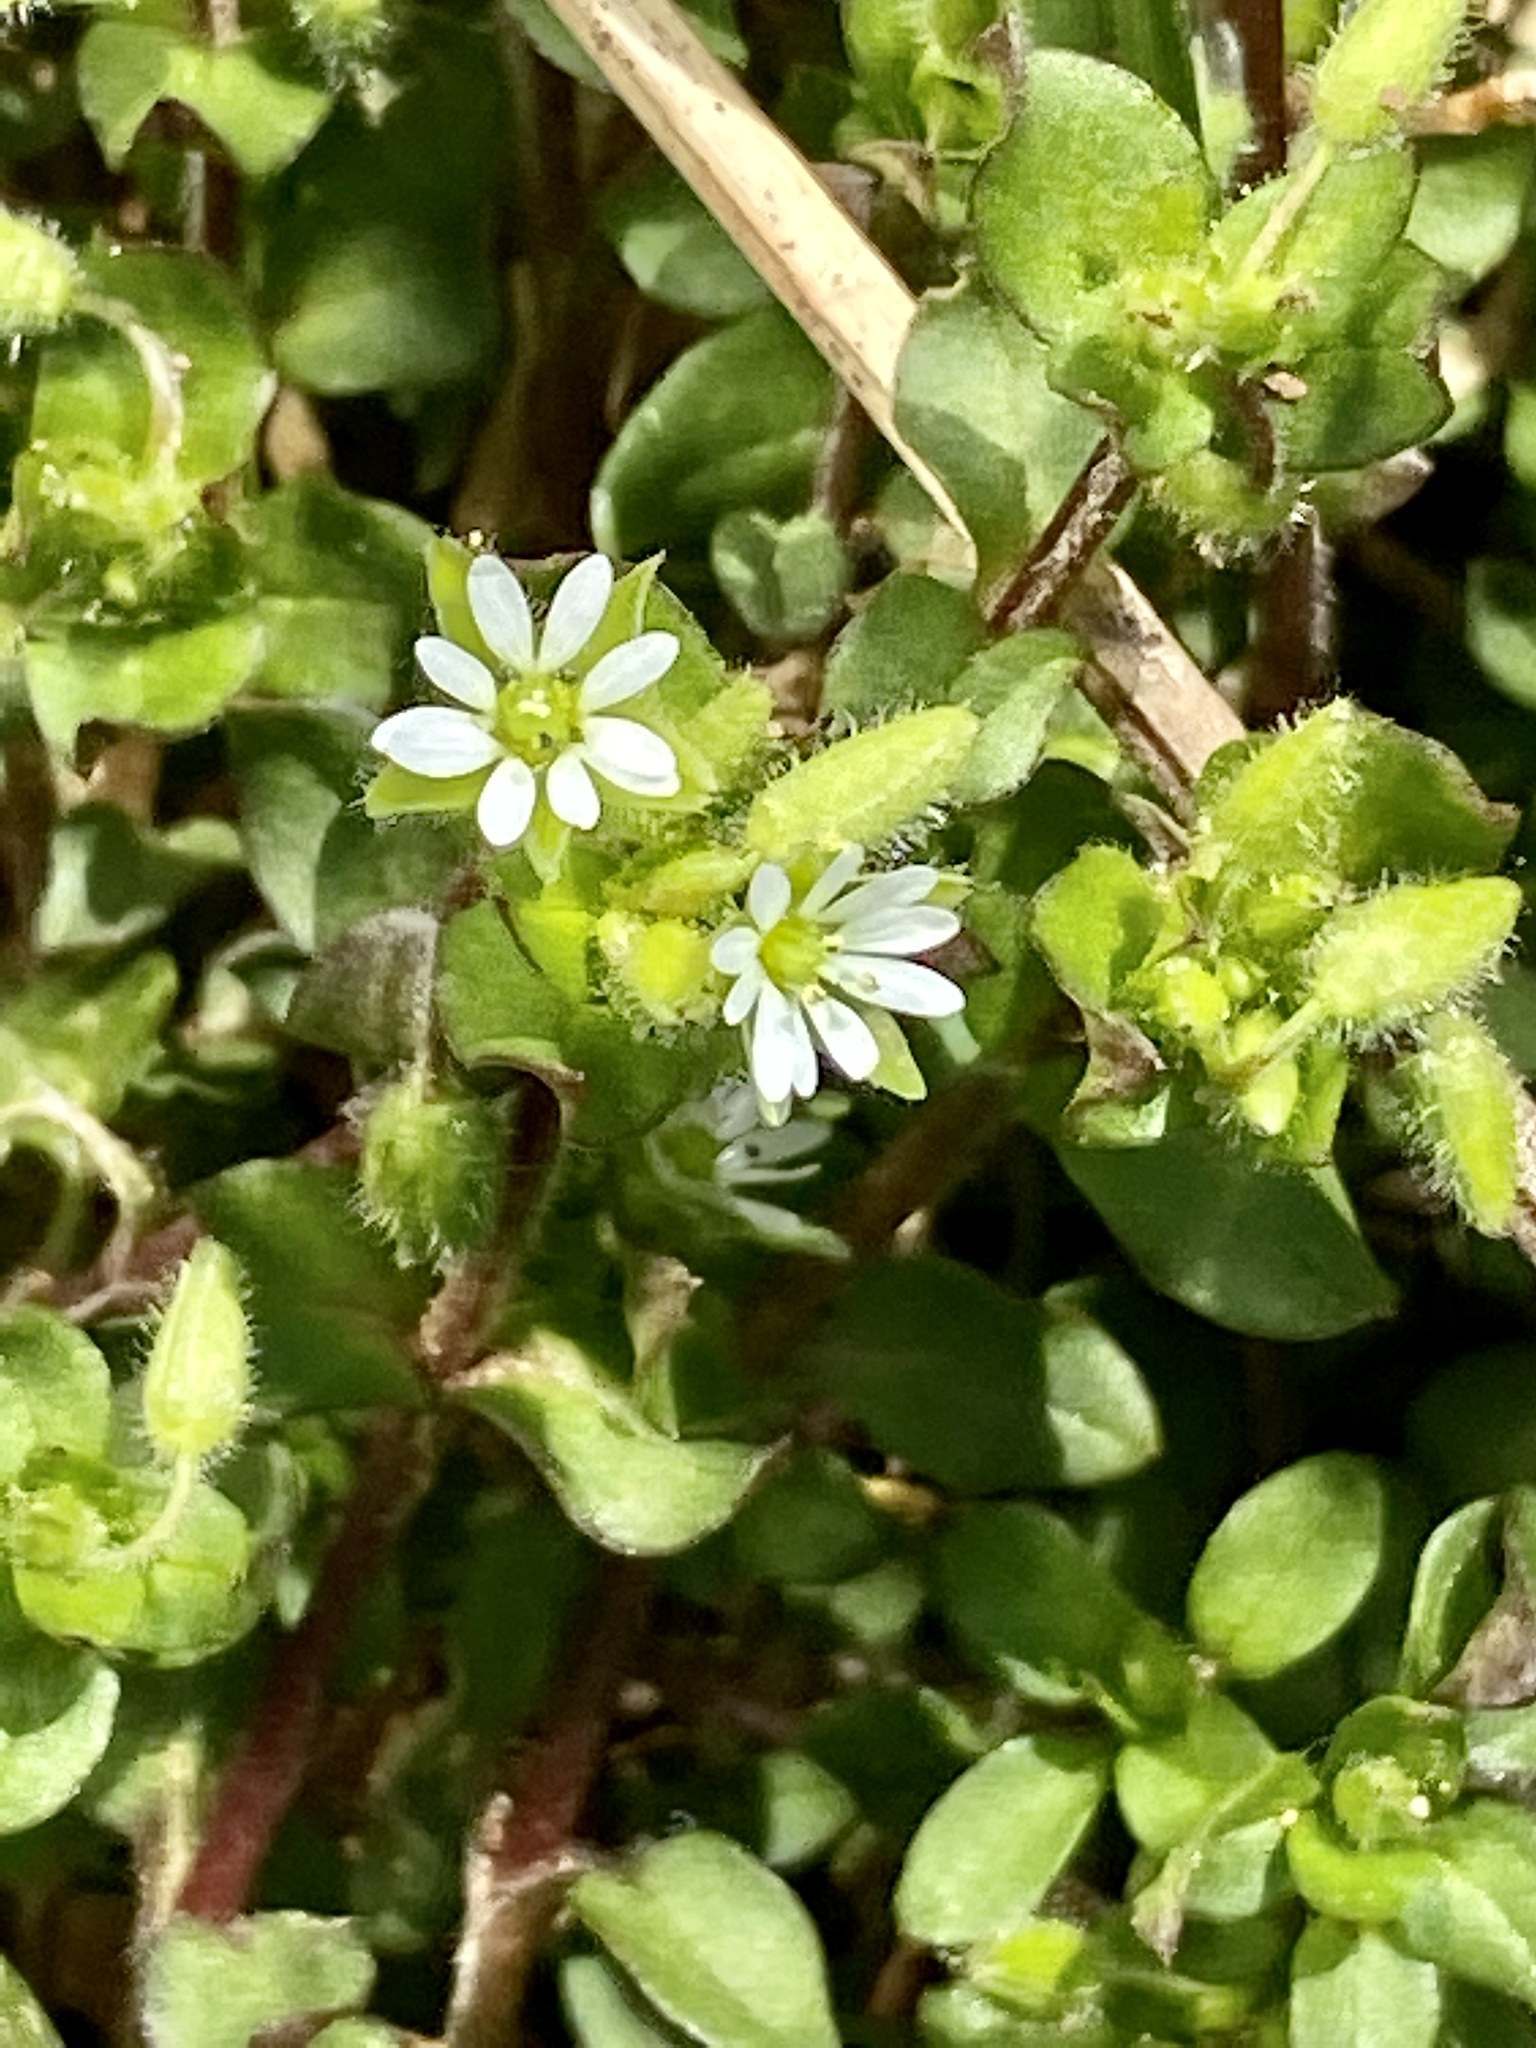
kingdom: Plantae
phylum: Tracheophyta
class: Magnoliopsida
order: Caryophyllales
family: Caryophyllaceae
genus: Stellaria
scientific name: Stellaria media
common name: Common chickweed
